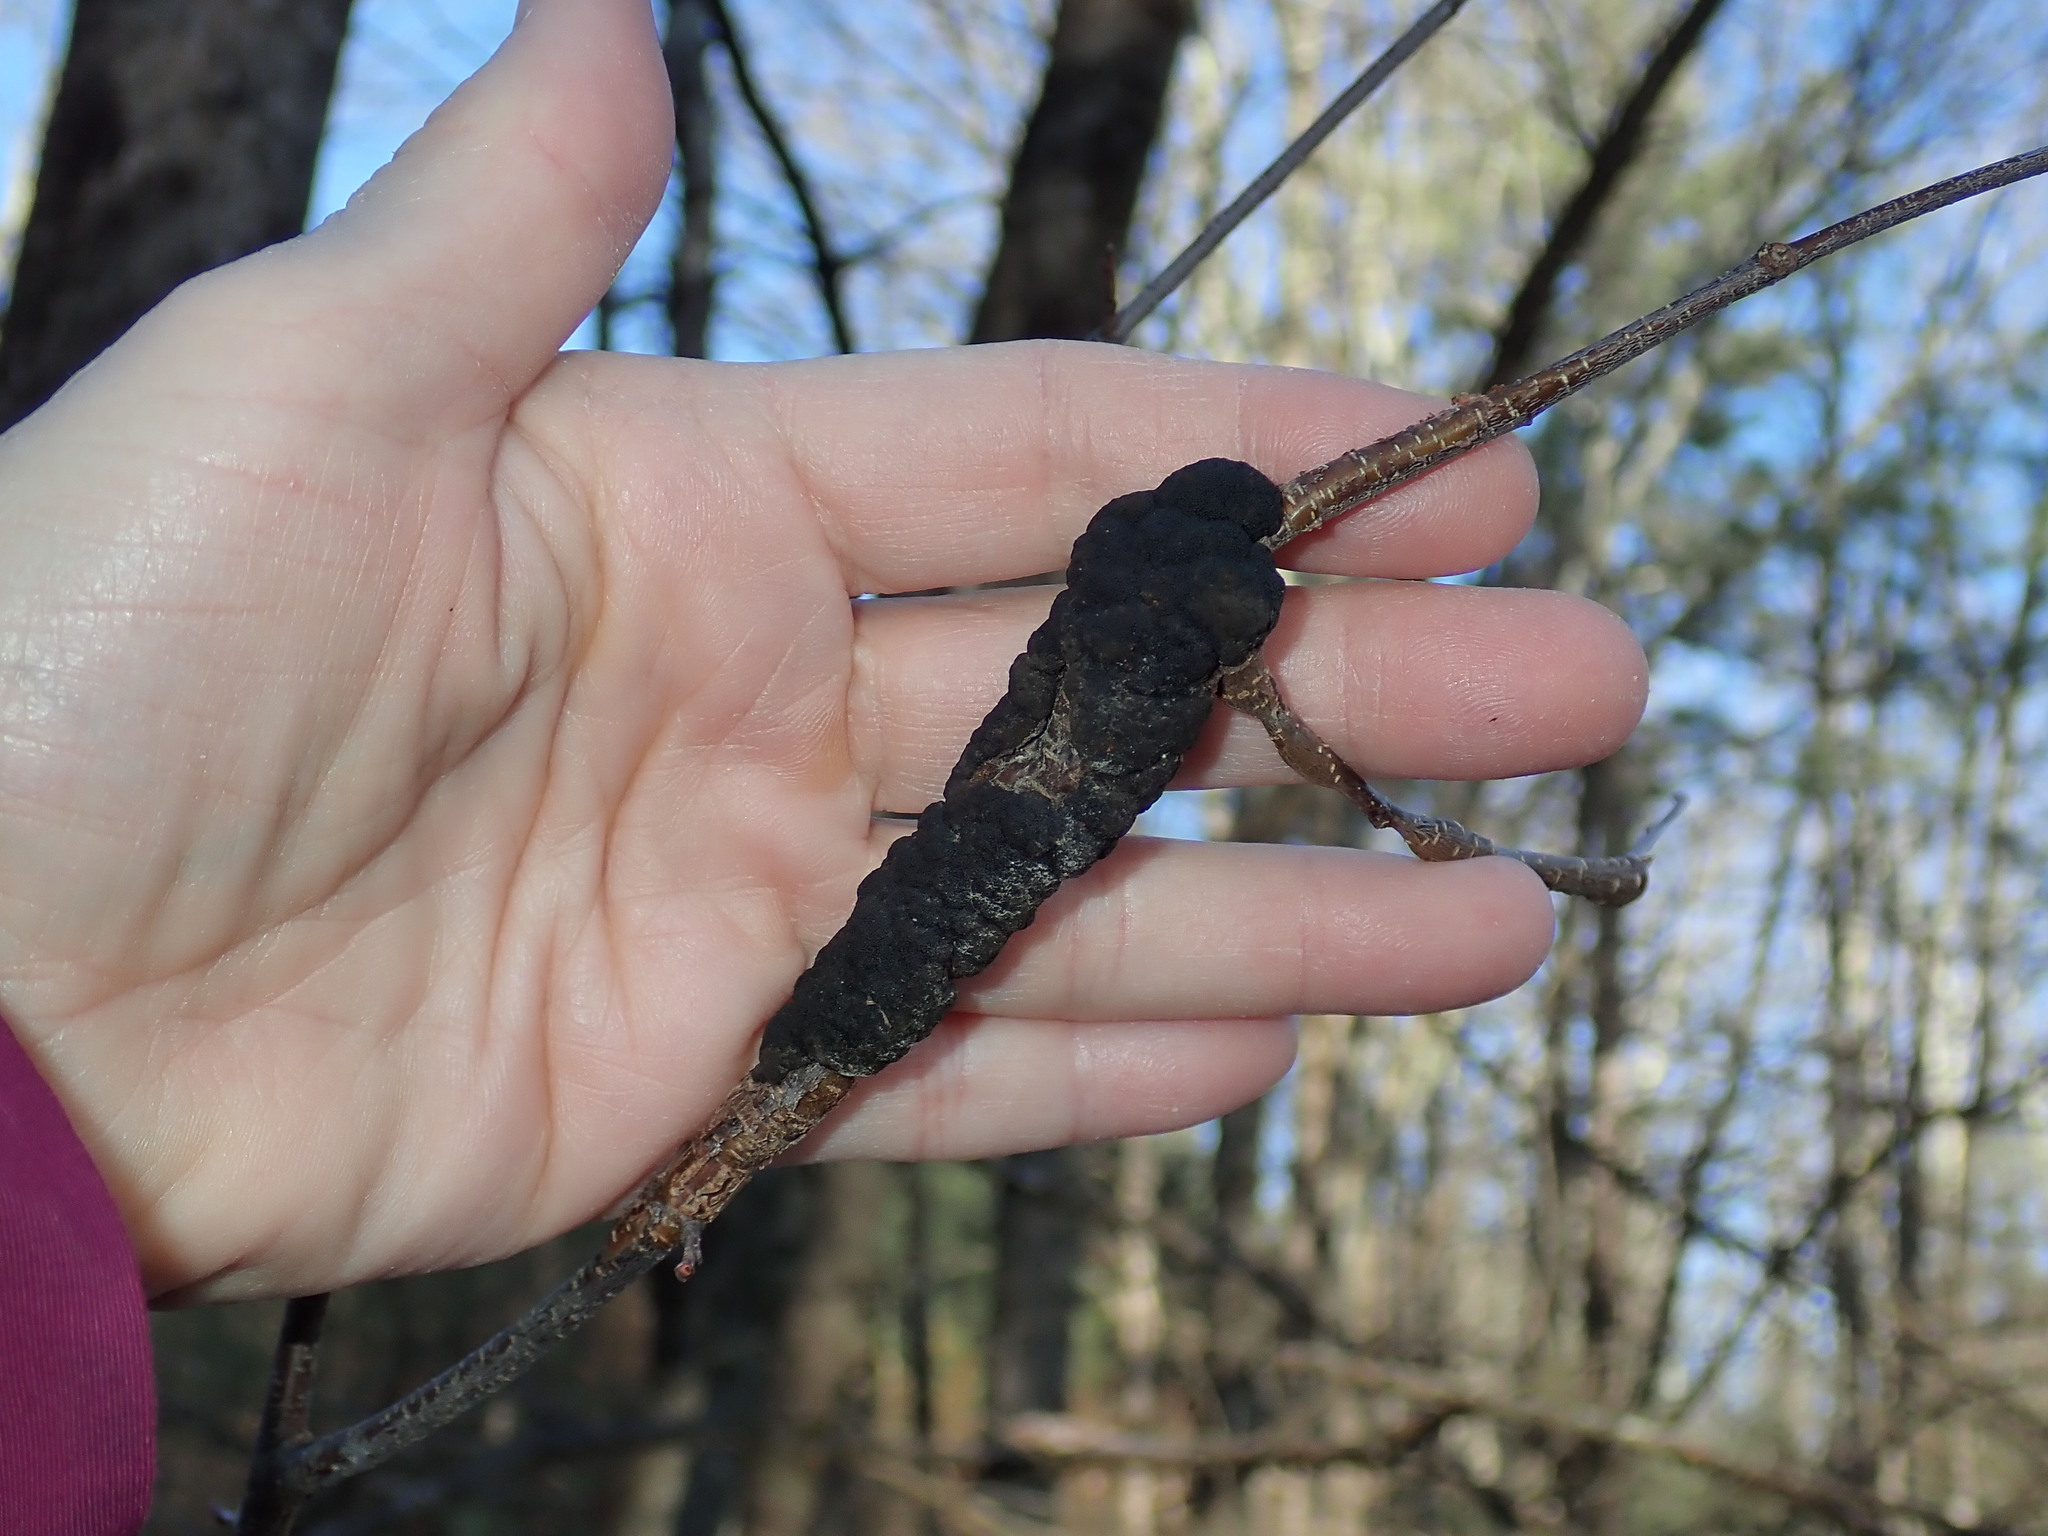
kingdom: Fungi
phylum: Ascomycota
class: Dothideomycetes
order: Venturiales
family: Venturiaceae
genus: Apiosporina
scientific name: Apiosporina morbosa
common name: Black knot
